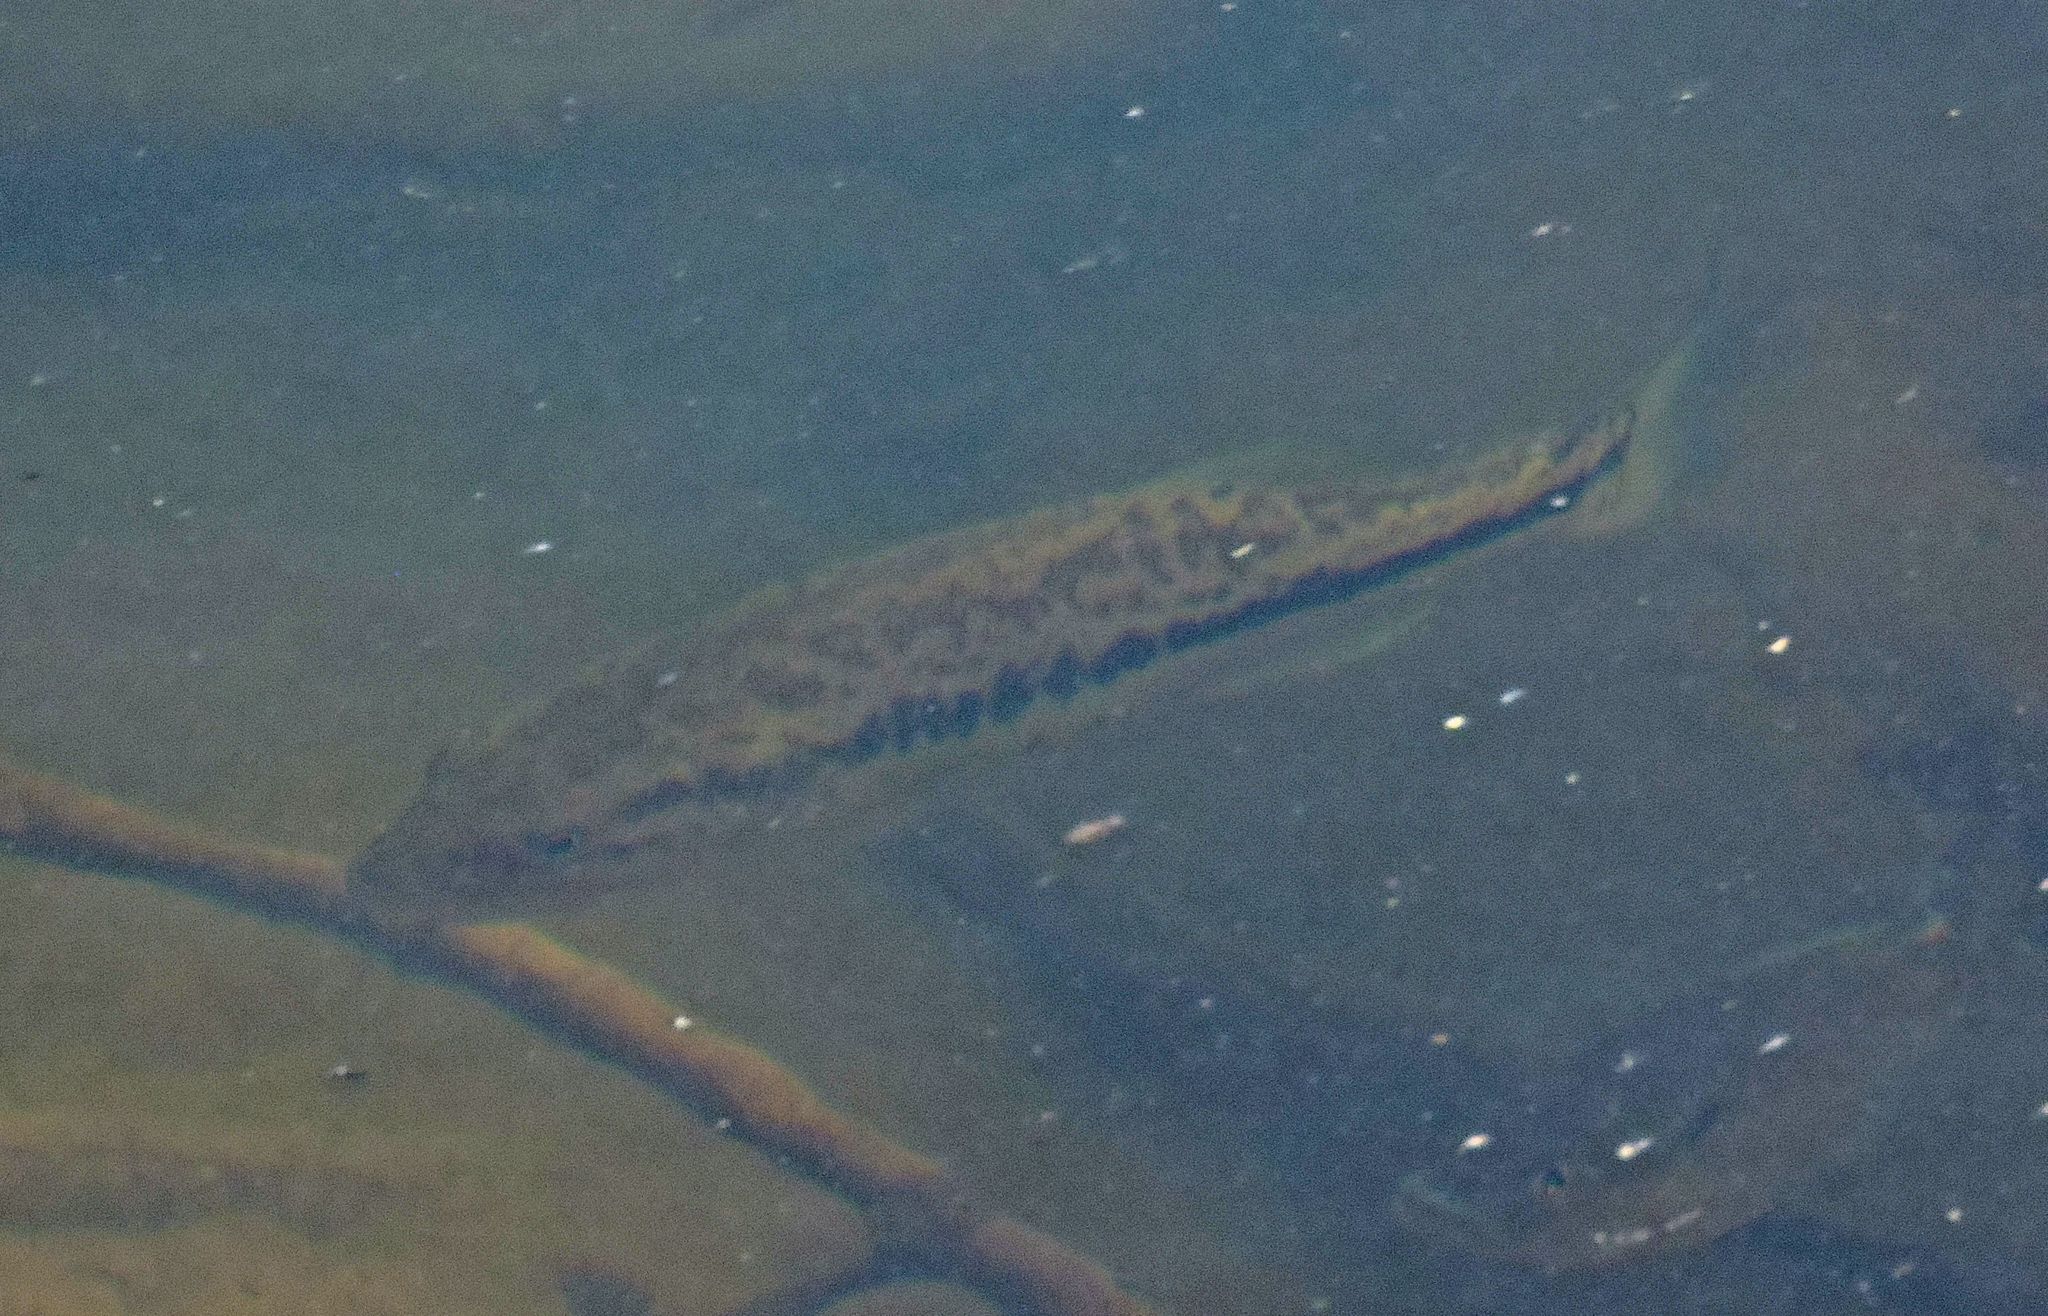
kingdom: Animalia
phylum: Chordata
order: Perciformes
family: Centrarchidae
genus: Micropterus
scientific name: Micropterus
